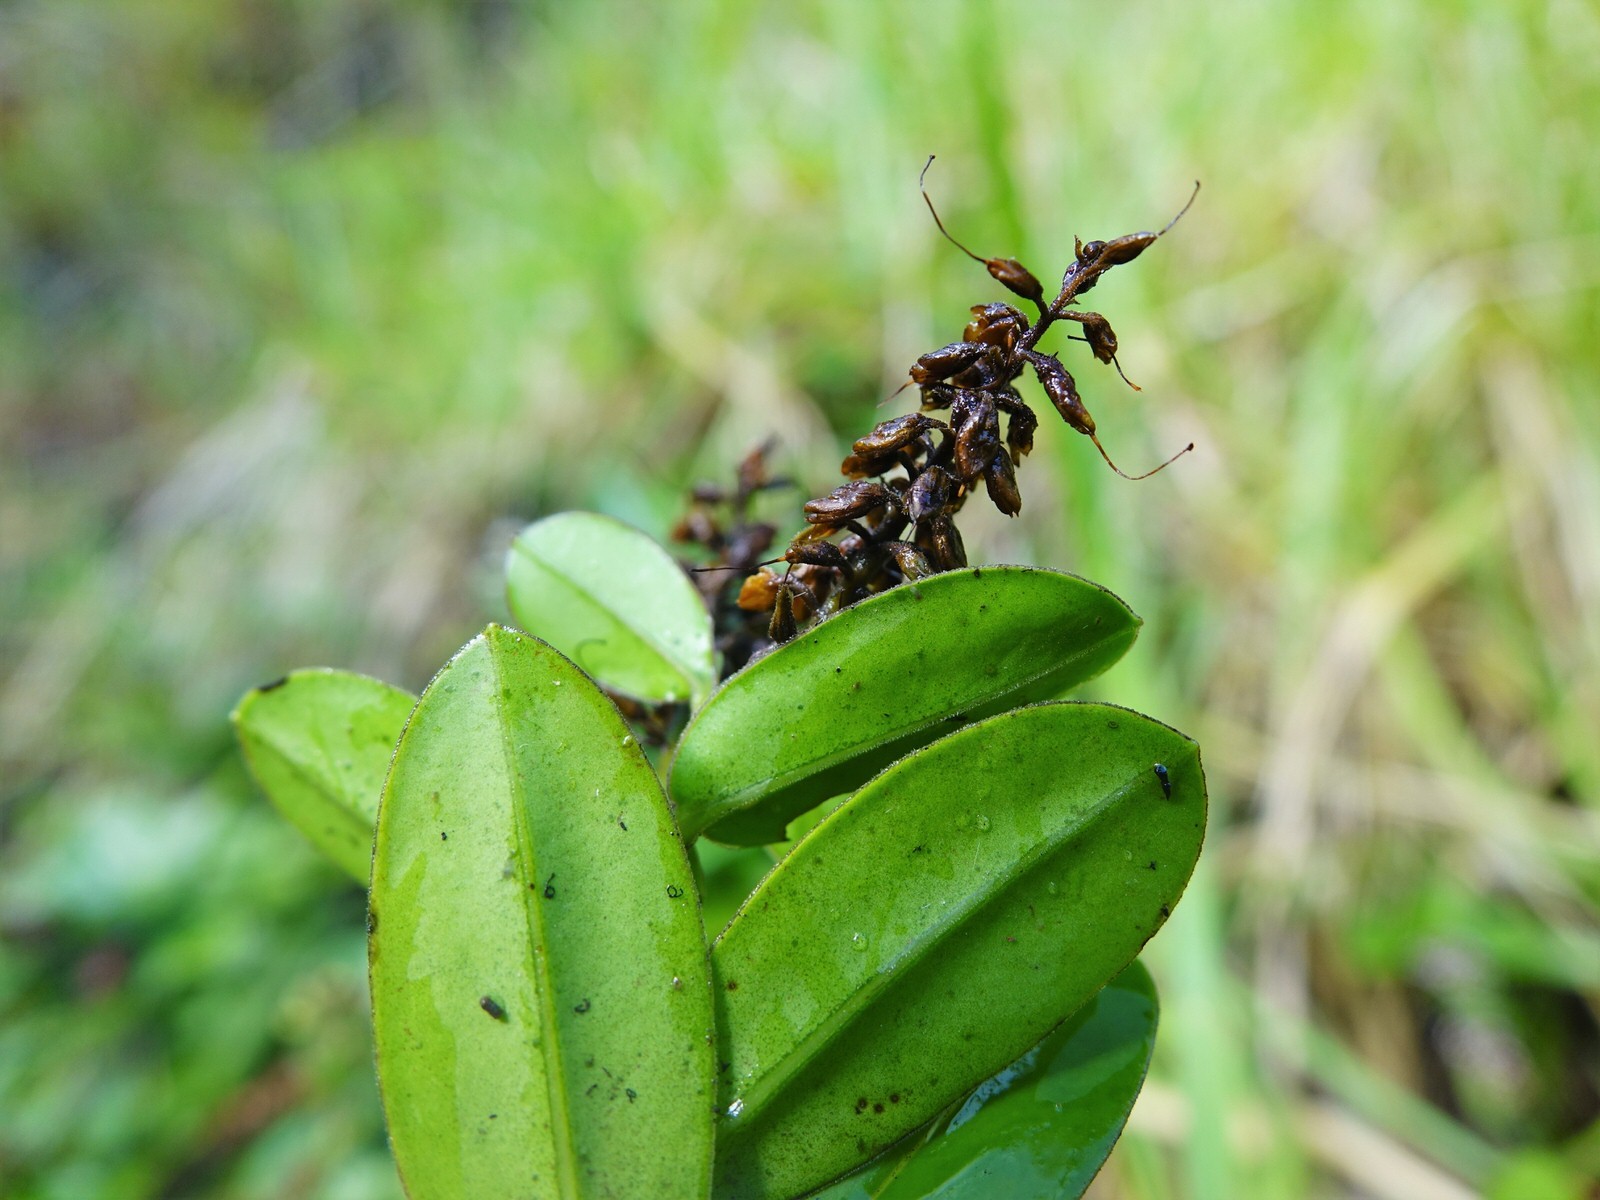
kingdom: Plantae
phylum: Tracheophyta
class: Magnoliopsida
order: Lamiales
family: Plantaginaceae
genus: Veronica
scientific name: Veronica obtusata
